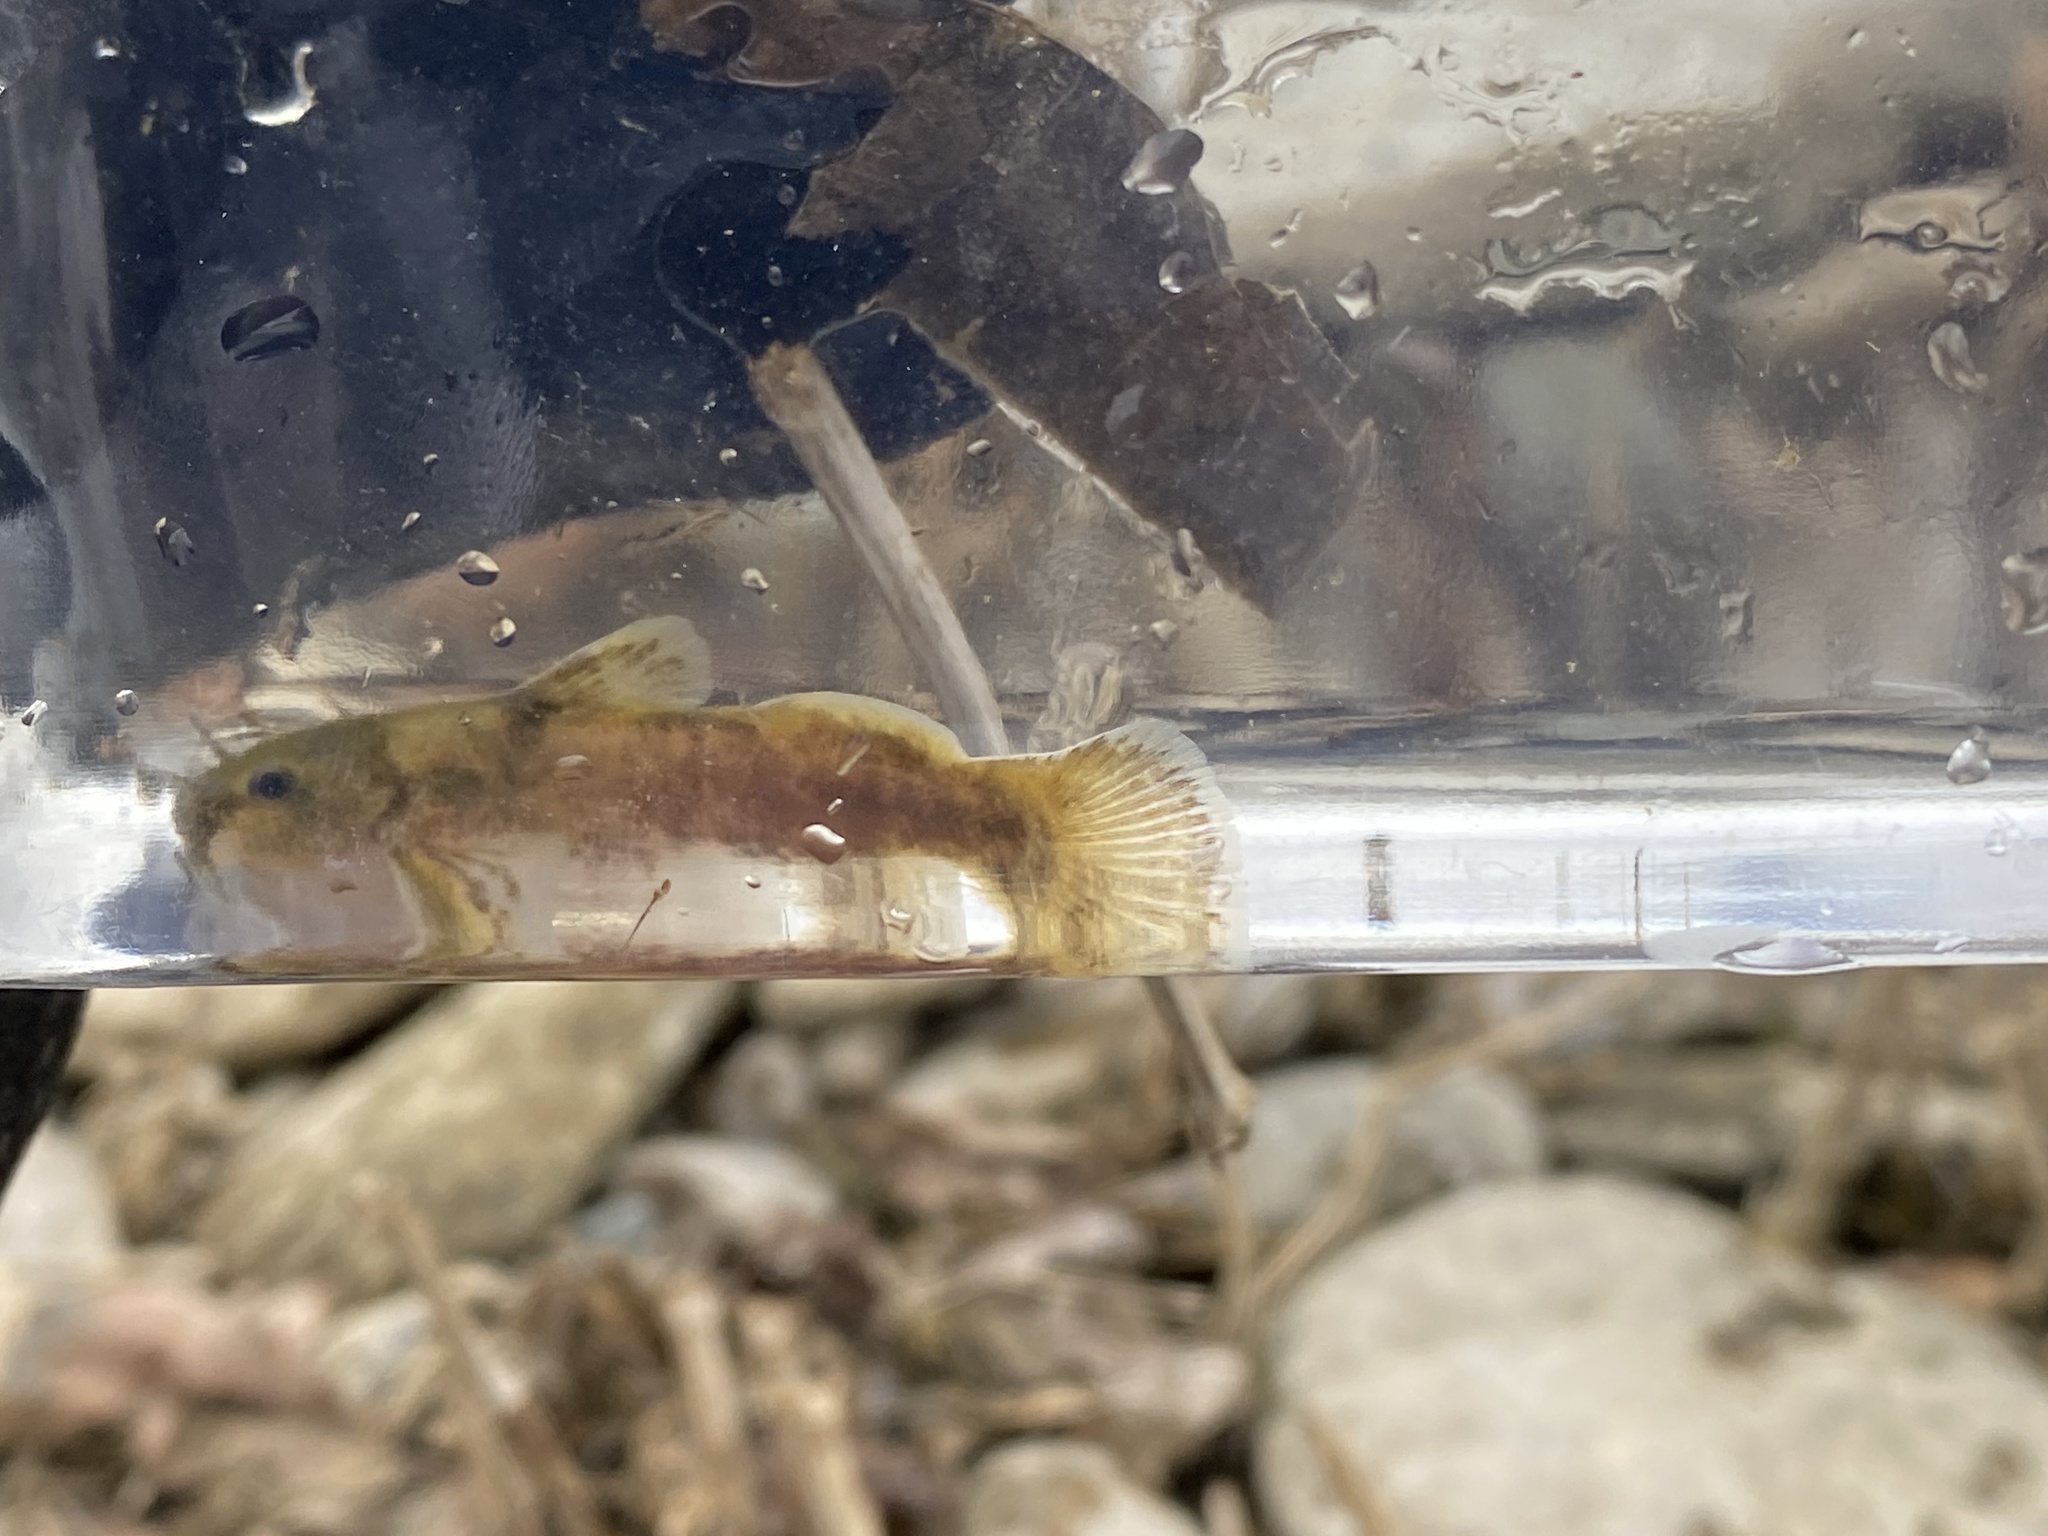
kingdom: Animalia
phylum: Chordata
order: Siluriformes
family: Ictaluridae
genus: Noturus
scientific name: Noturus eleutherus
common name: Mountain madtom
